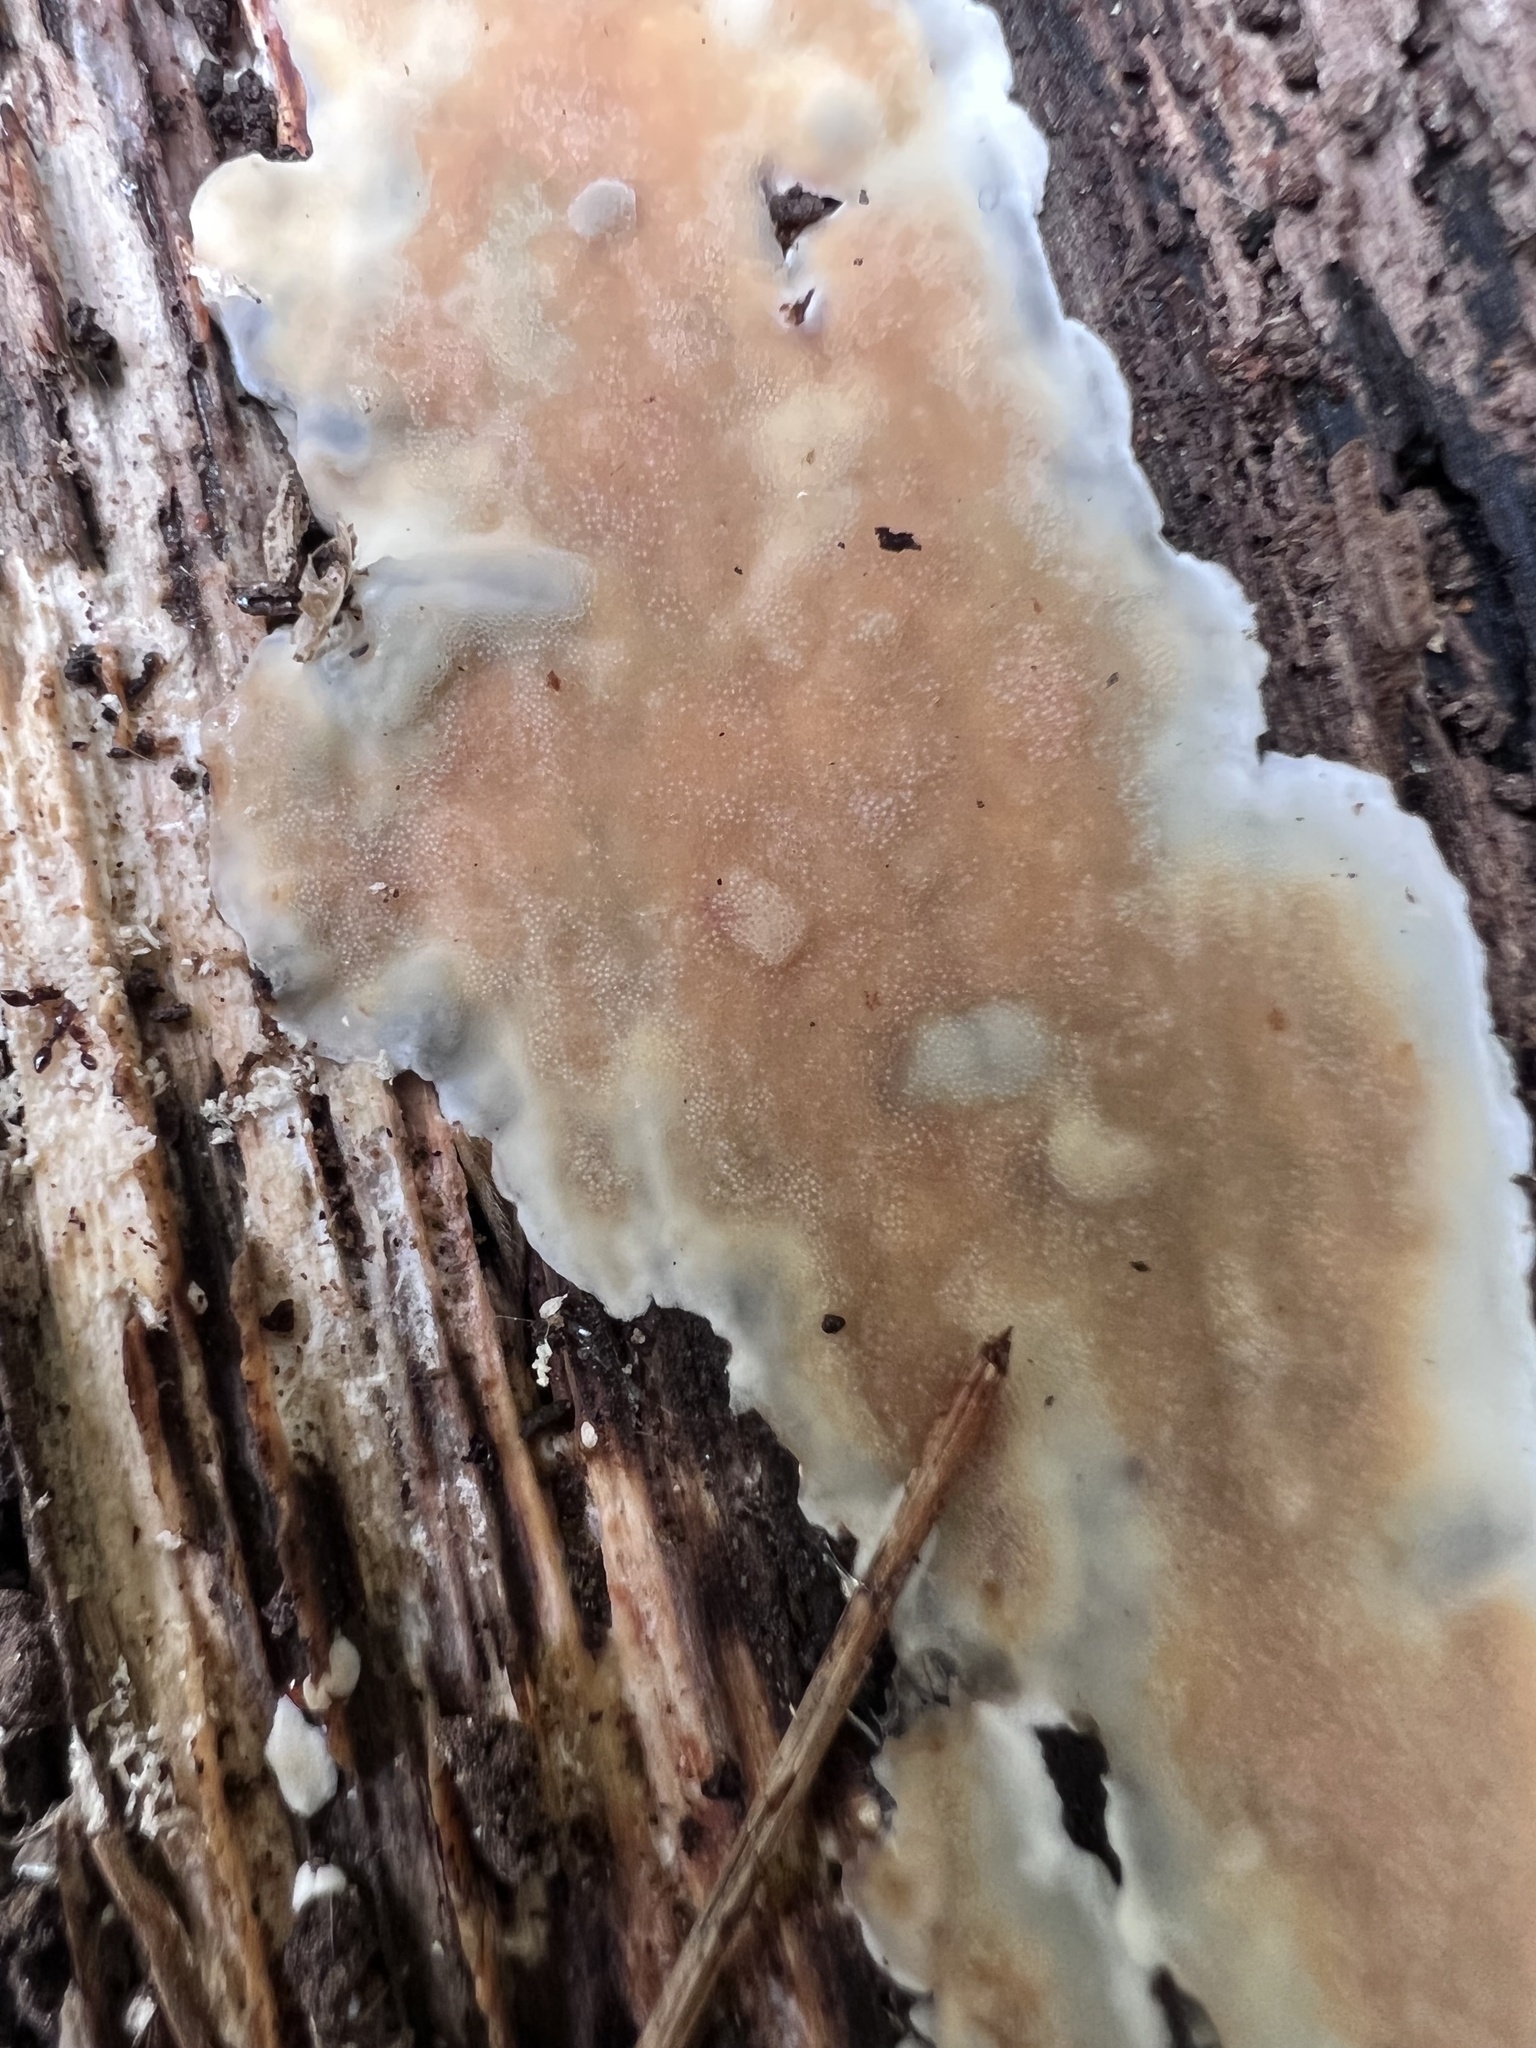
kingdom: Fungi
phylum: Basidiomycota
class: Agaricomycetes
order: Polyporales
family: Steccherinaceae
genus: Steccherinum
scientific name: Steccherinum ochraceum
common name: Ochre spreading tooth
